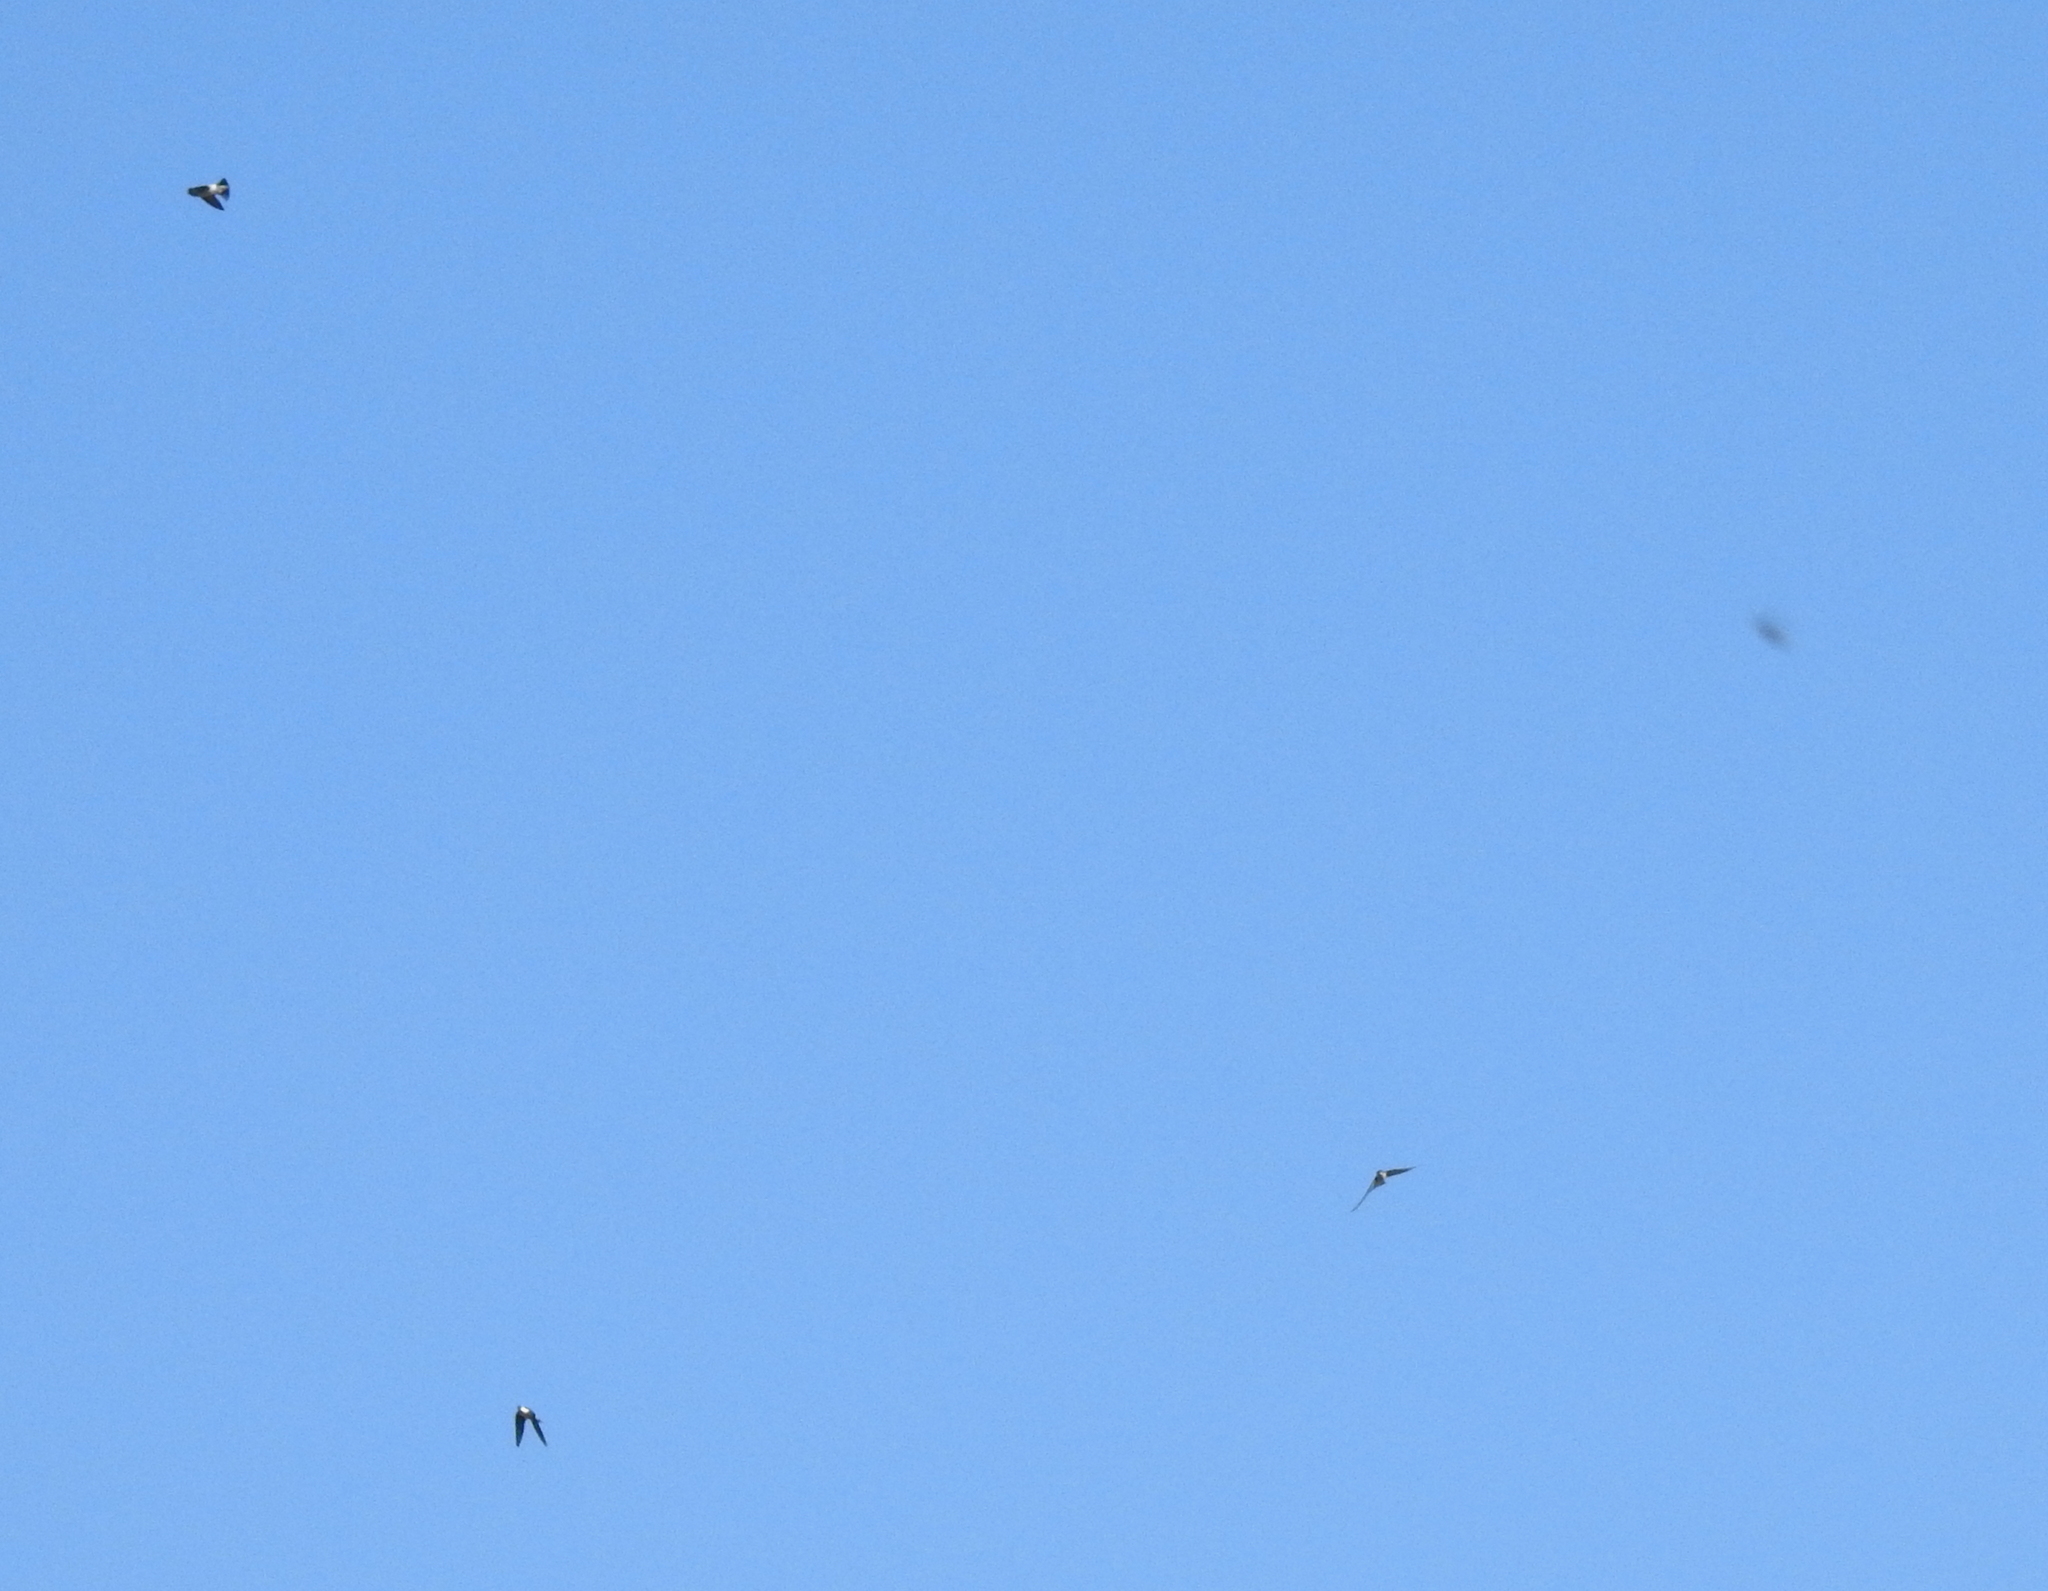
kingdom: Animalia
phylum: Chordata
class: Aves
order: Passeriformes
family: Hirundinidae
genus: Tachycineta
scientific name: Tachycineta thalassina
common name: Violet-green swallow
